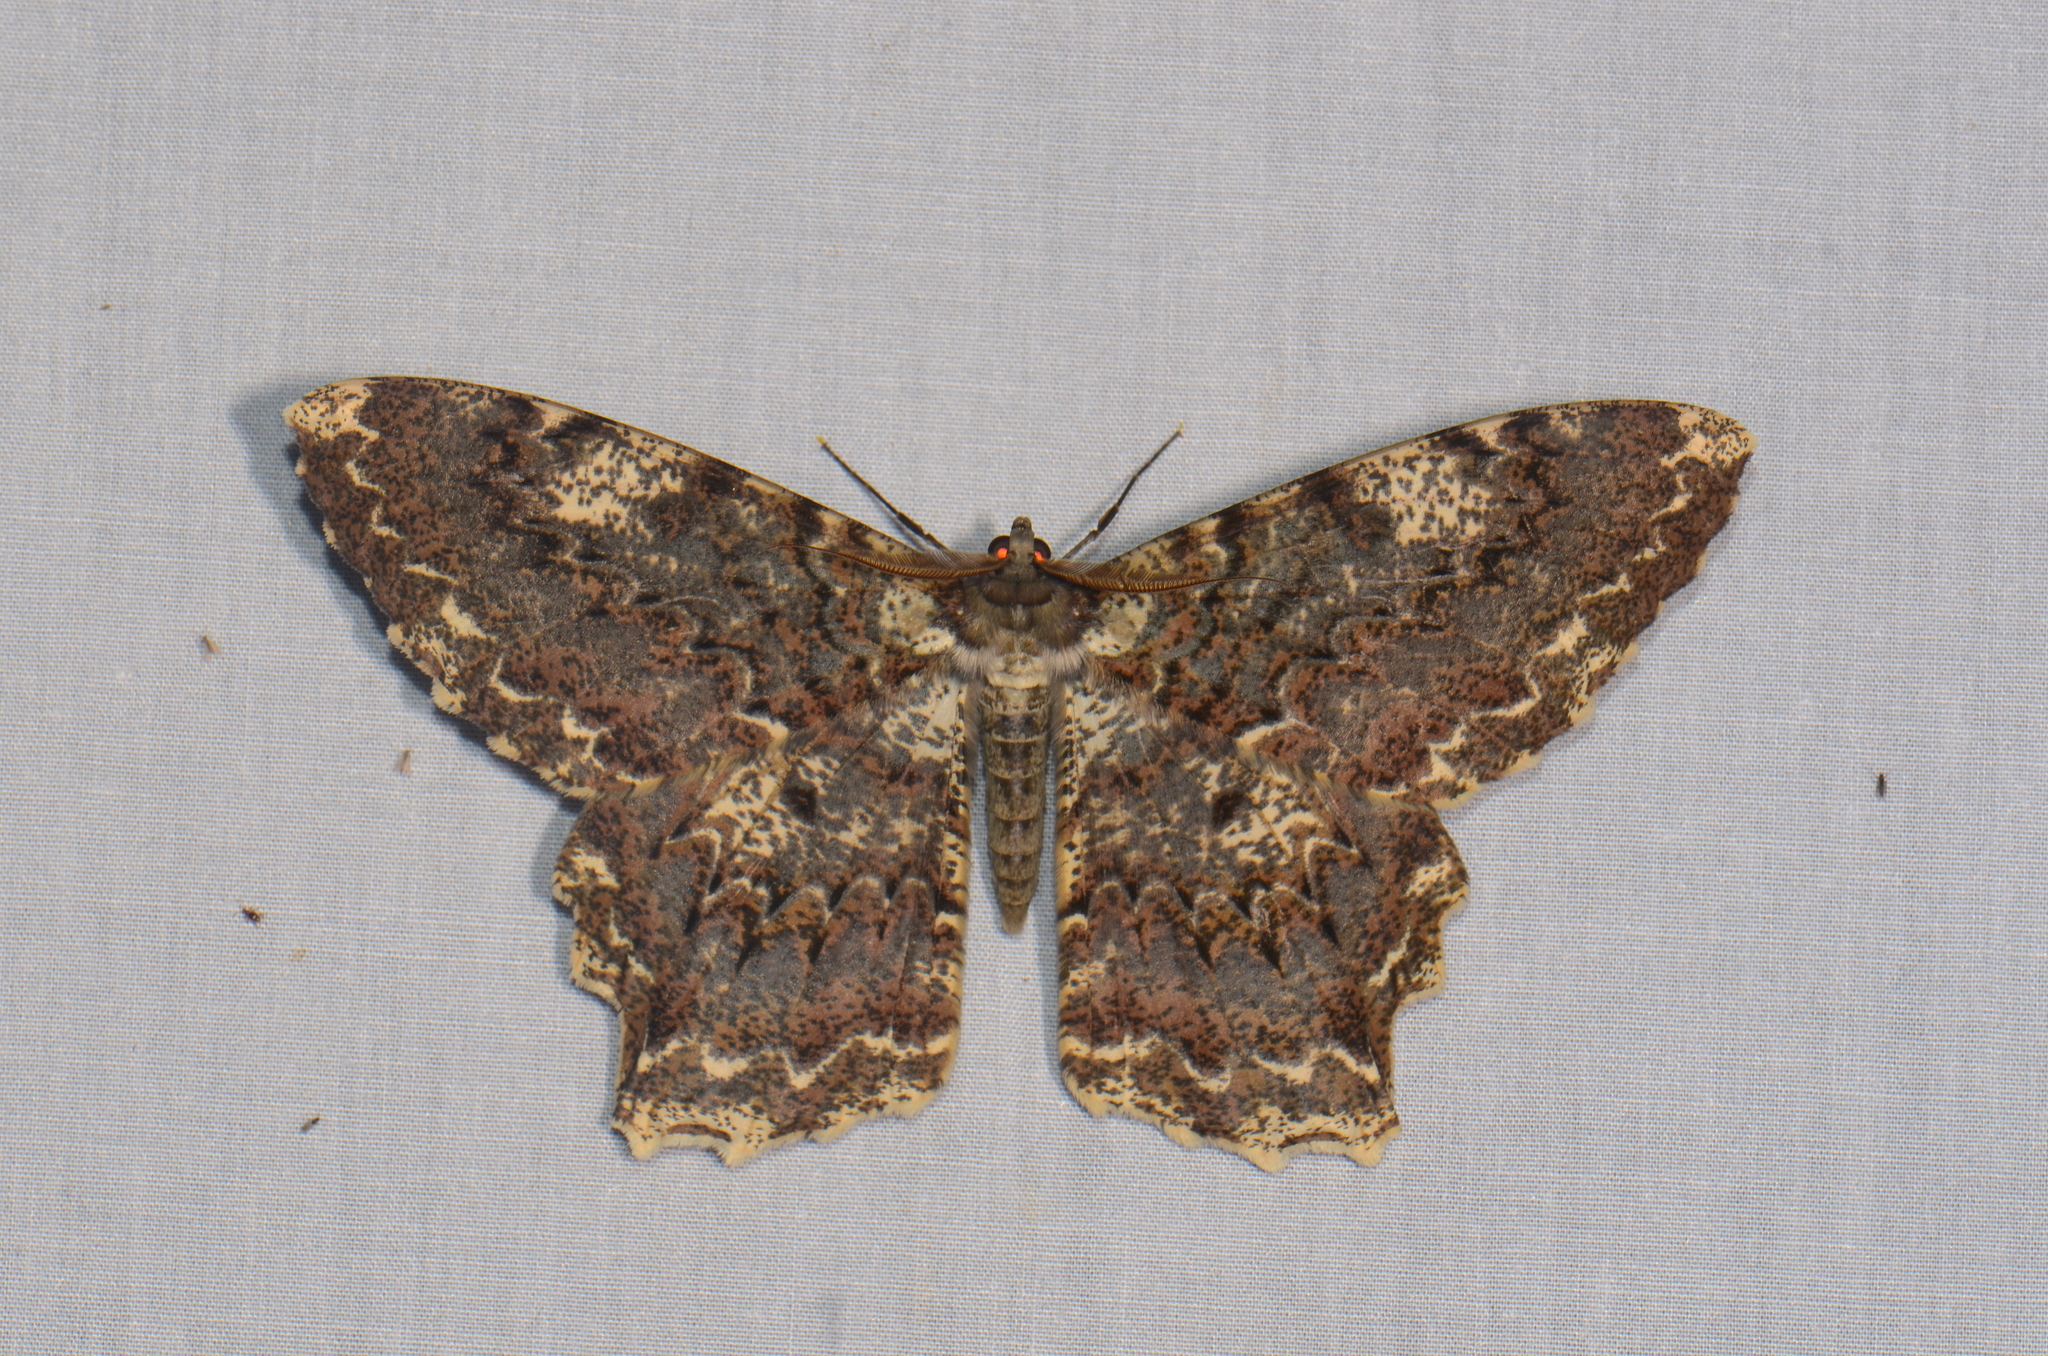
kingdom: Animalia
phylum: Arthropoda
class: Insecta
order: Lepidoptera
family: Geometridae
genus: Amblychia
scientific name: Amblychia praestans
